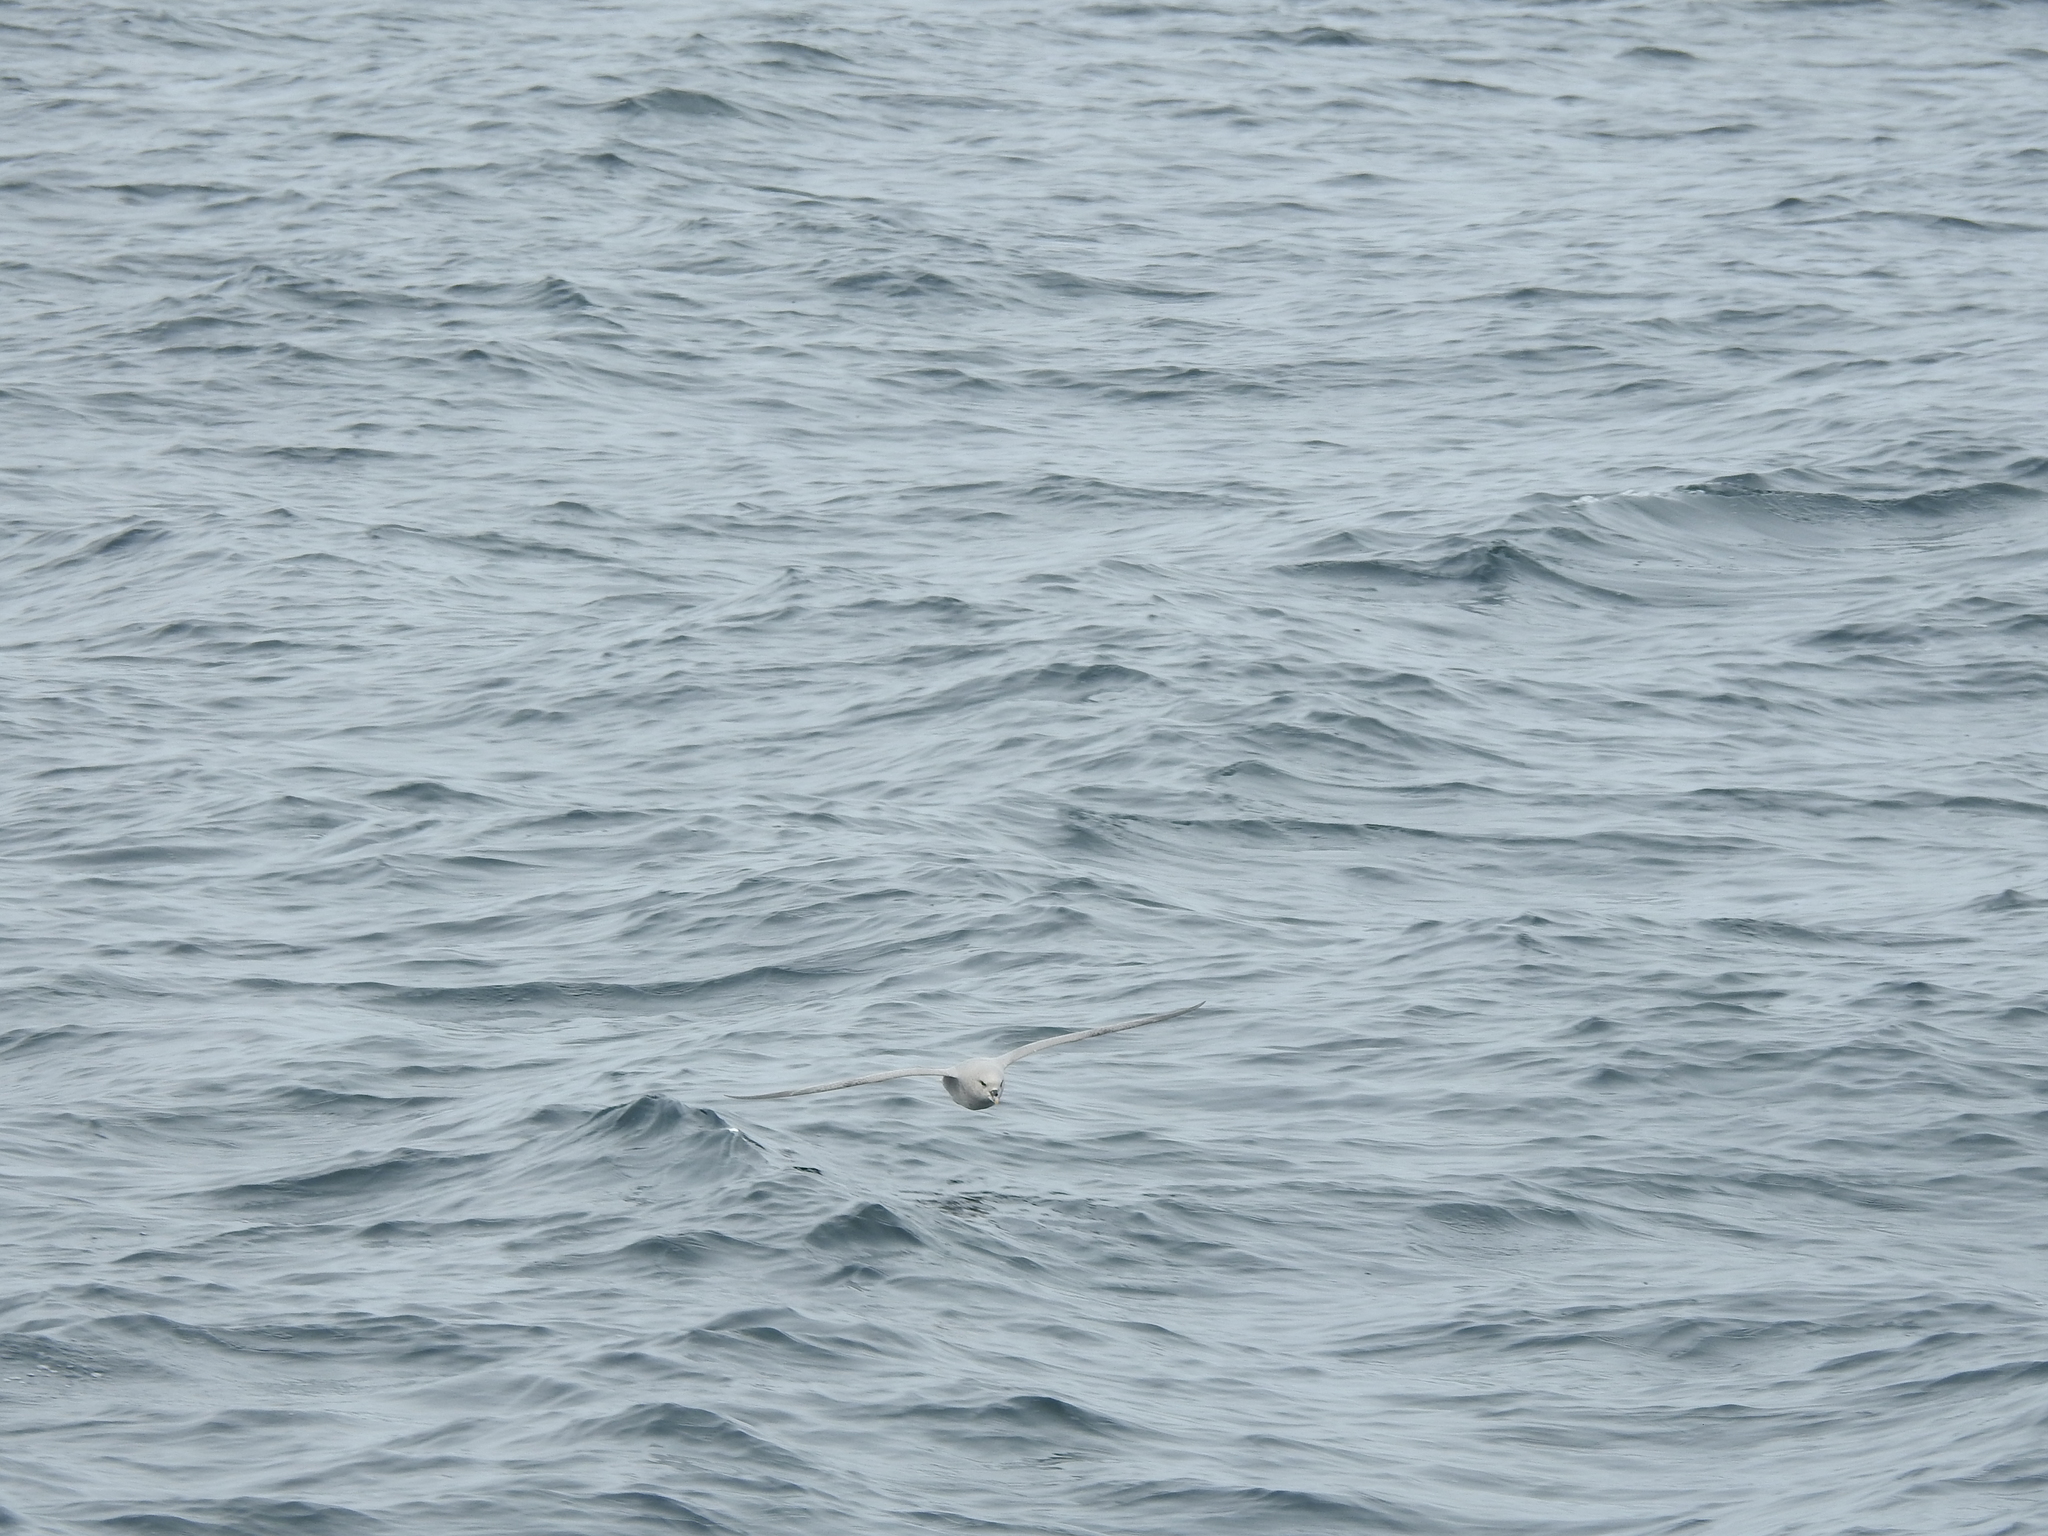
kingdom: Animalia
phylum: Chordata
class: Aves
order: Procellariiformes
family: Procellariidae
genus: Fulmarus
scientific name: Fulmarus glacialis
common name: Northern fulmar
